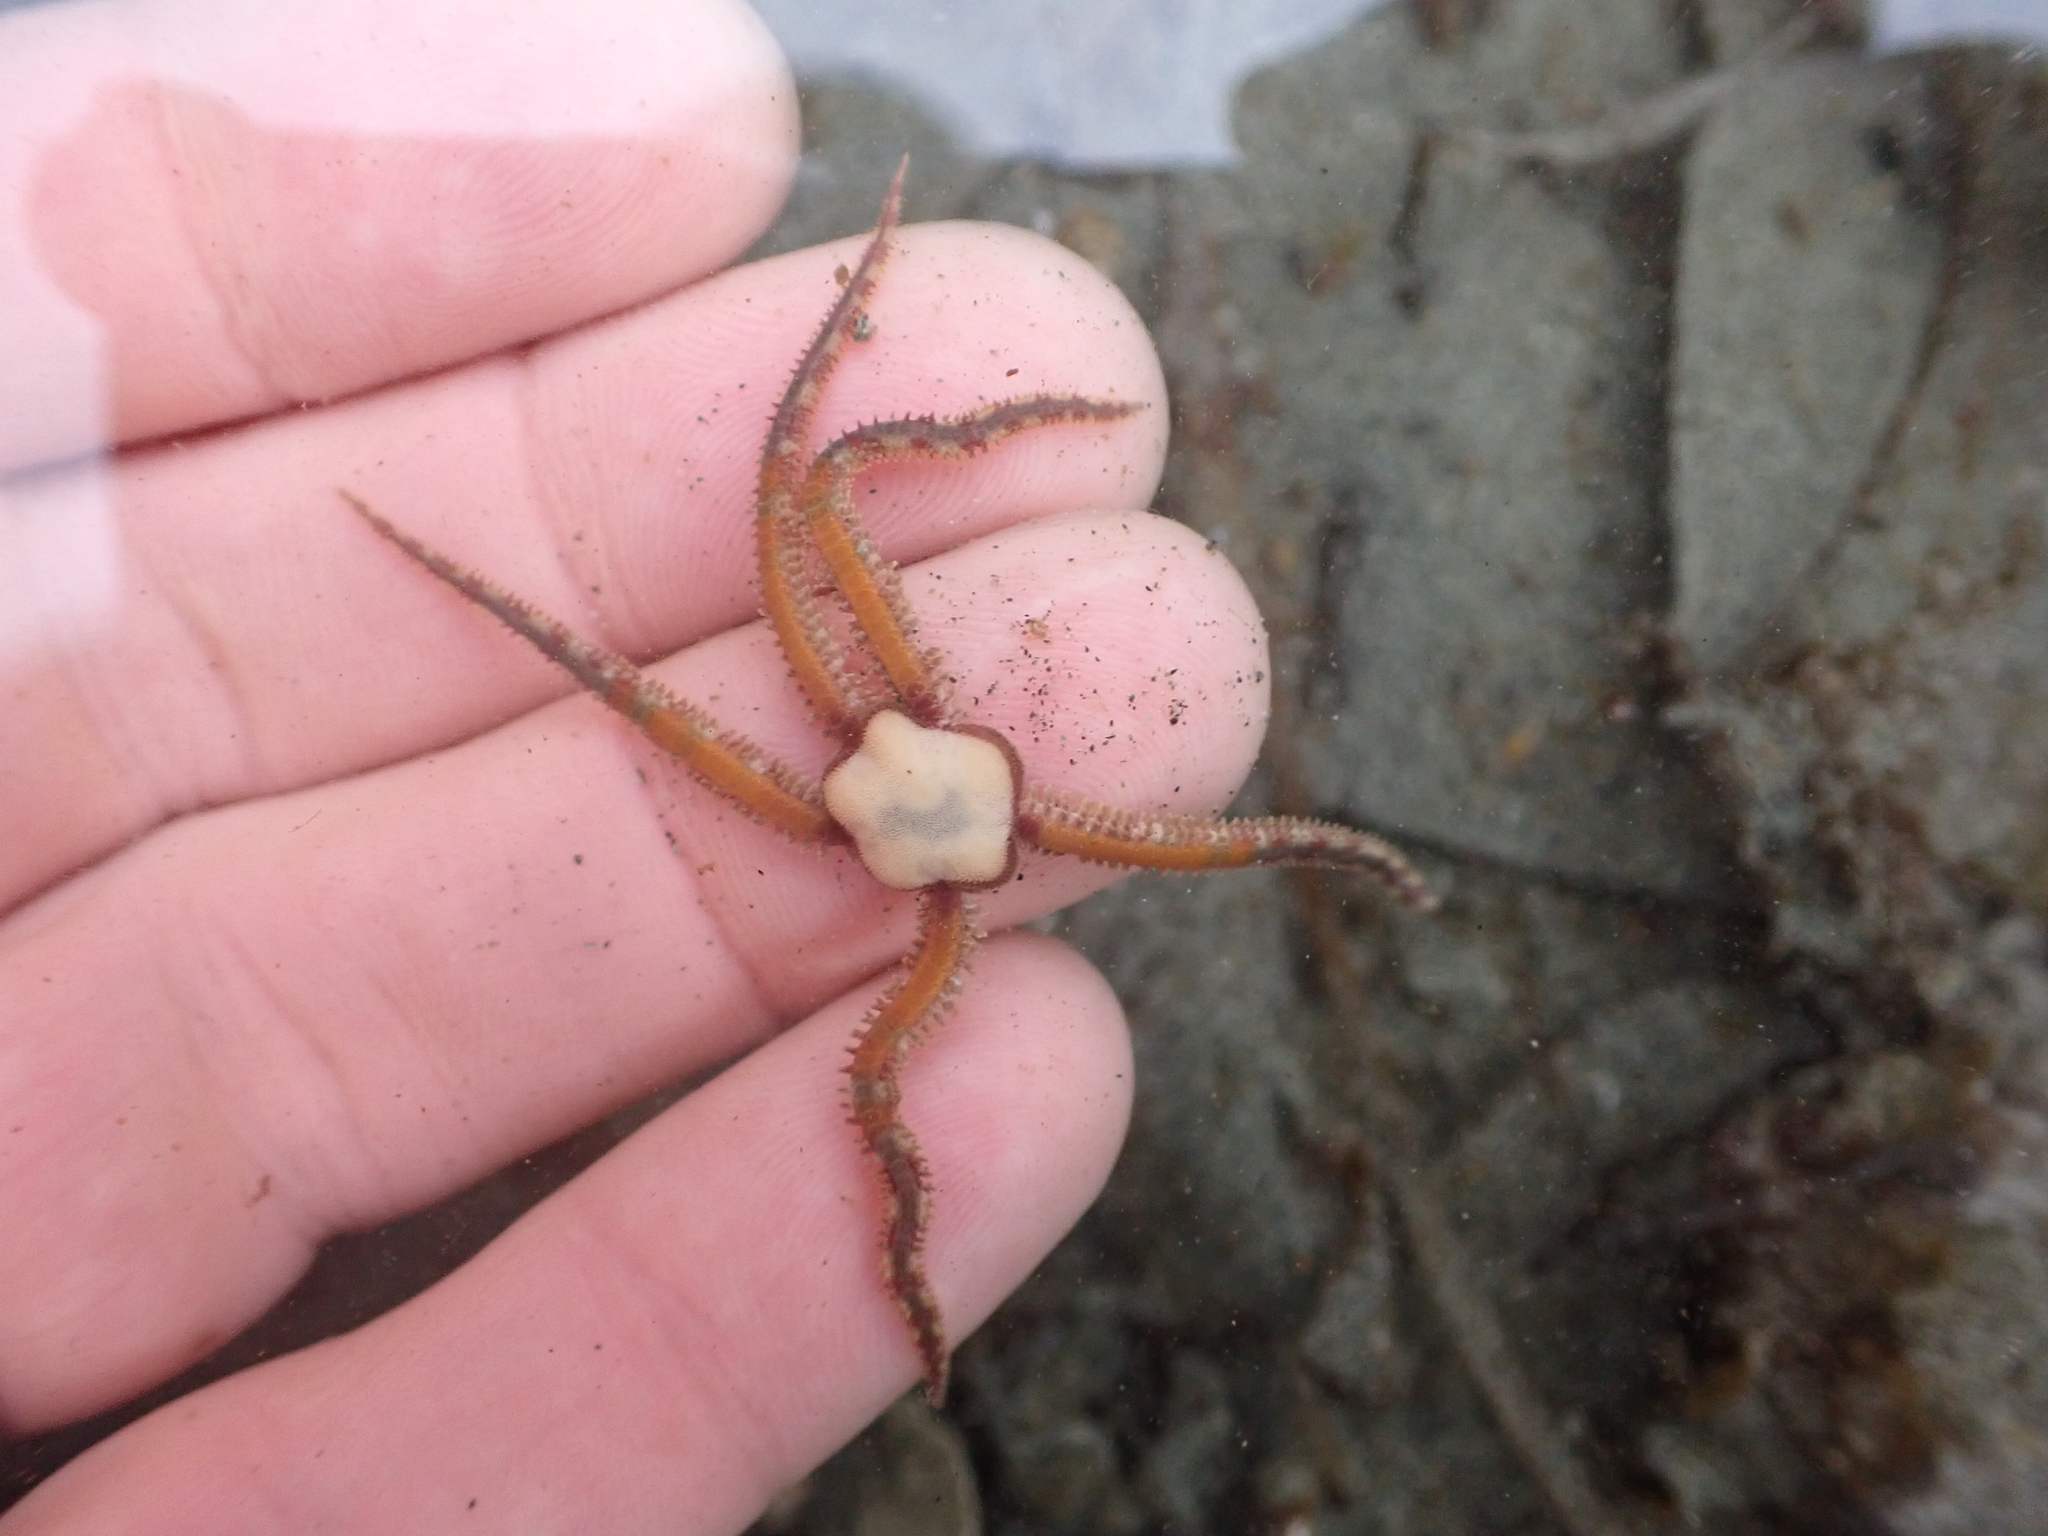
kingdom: Animalia
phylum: Echinodermata
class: Ophiuroidea
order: Amphilepidida
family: Ophiopholidae
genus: Ophiopholis
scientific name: Ophiopholis kennerlyi
